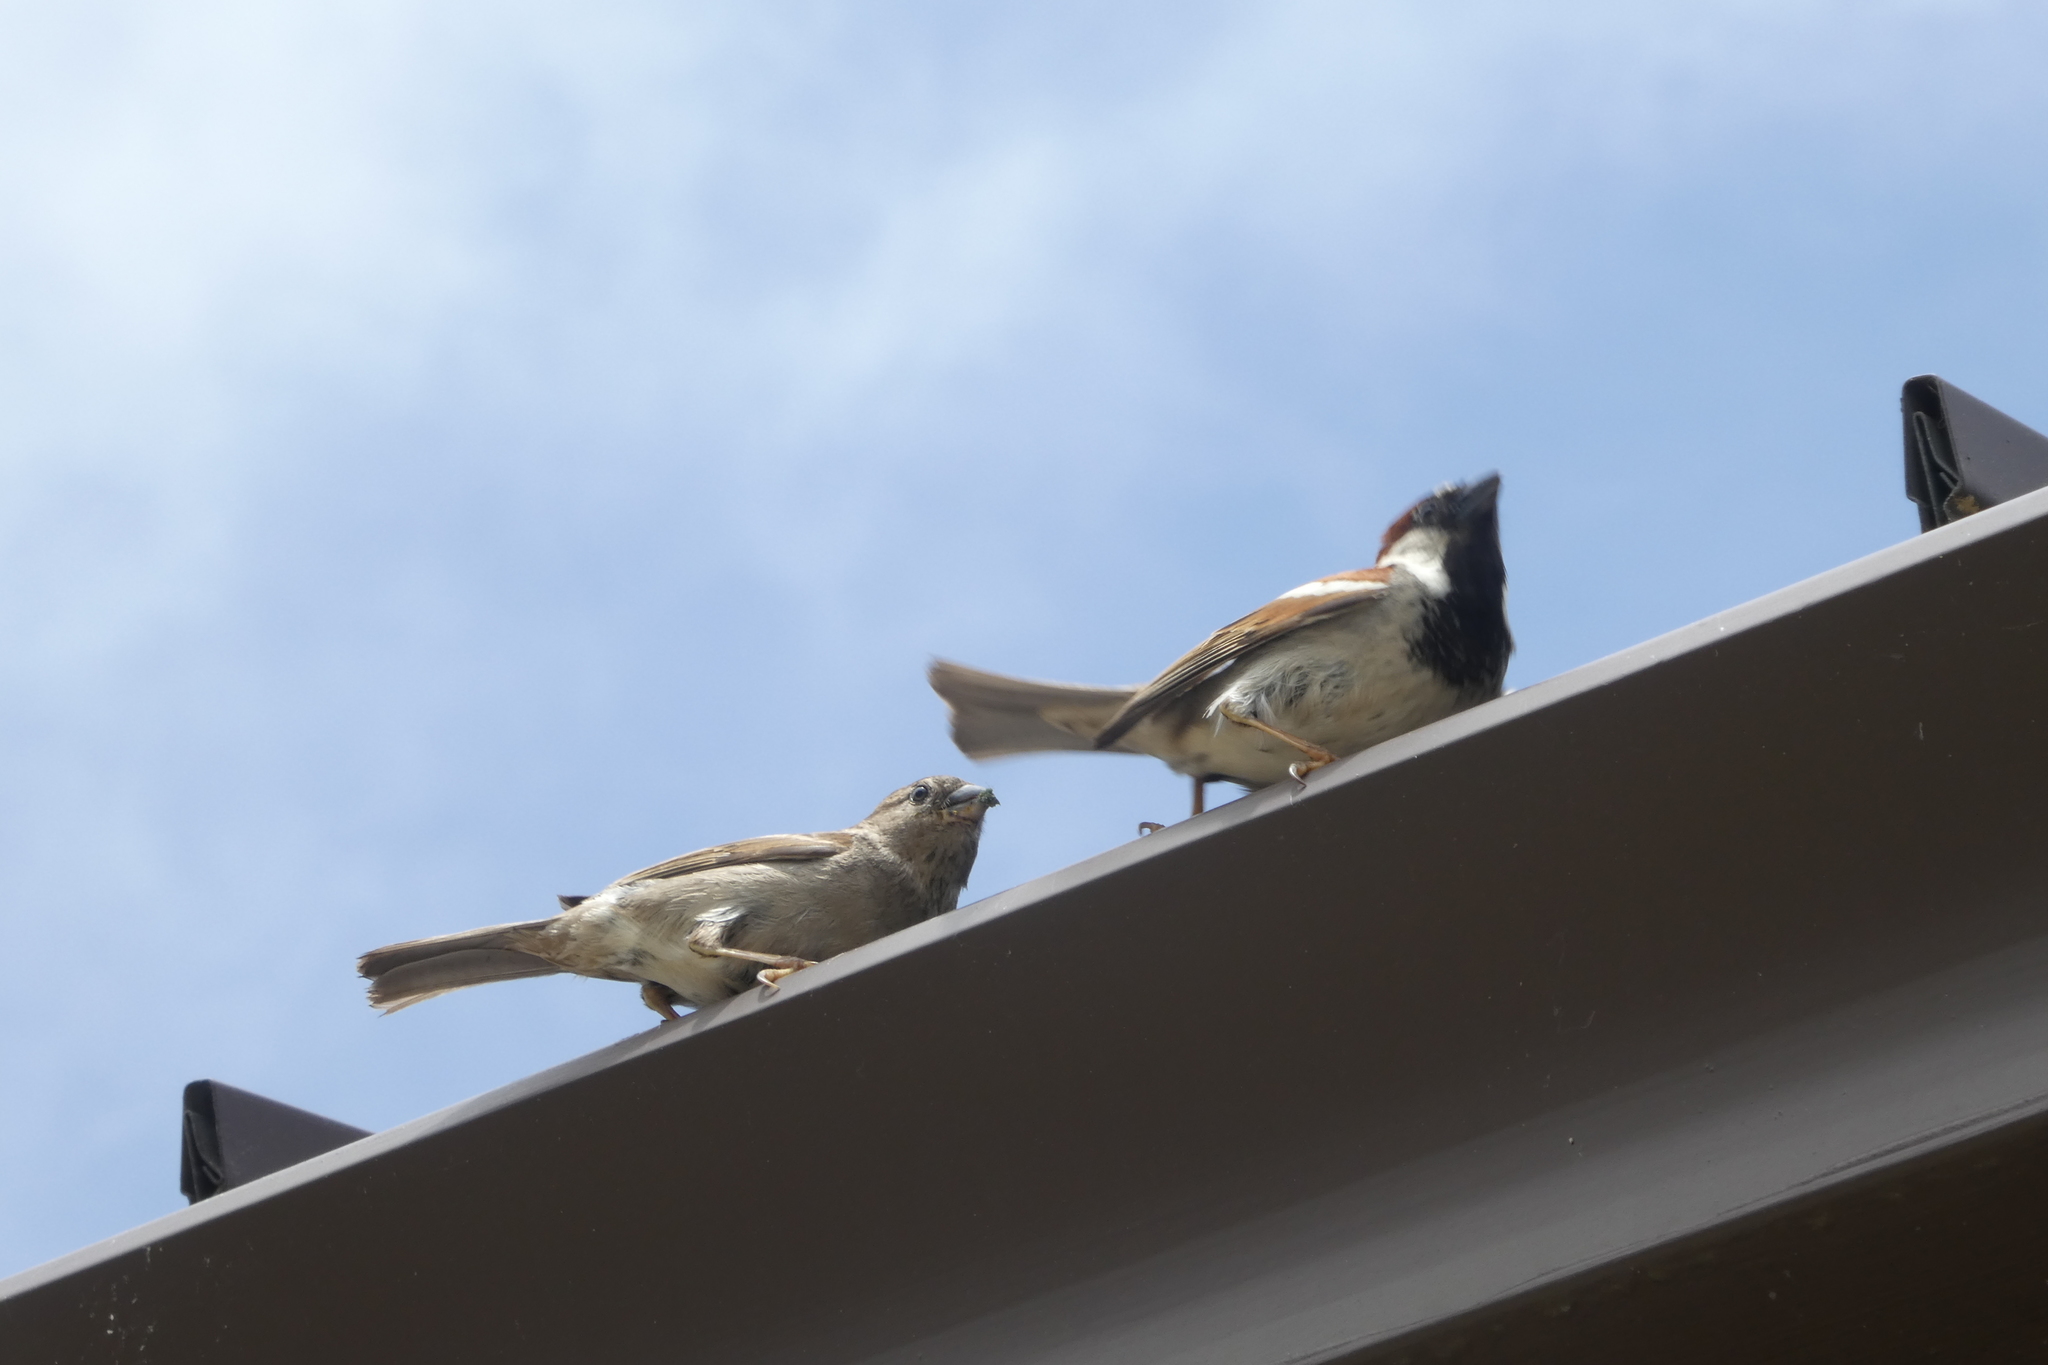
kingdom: Animalia
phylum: Chordata
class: Aves
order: Passeriformes
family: Passeridae
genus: Passer
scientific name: Passer domesticus
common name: House sparrow
